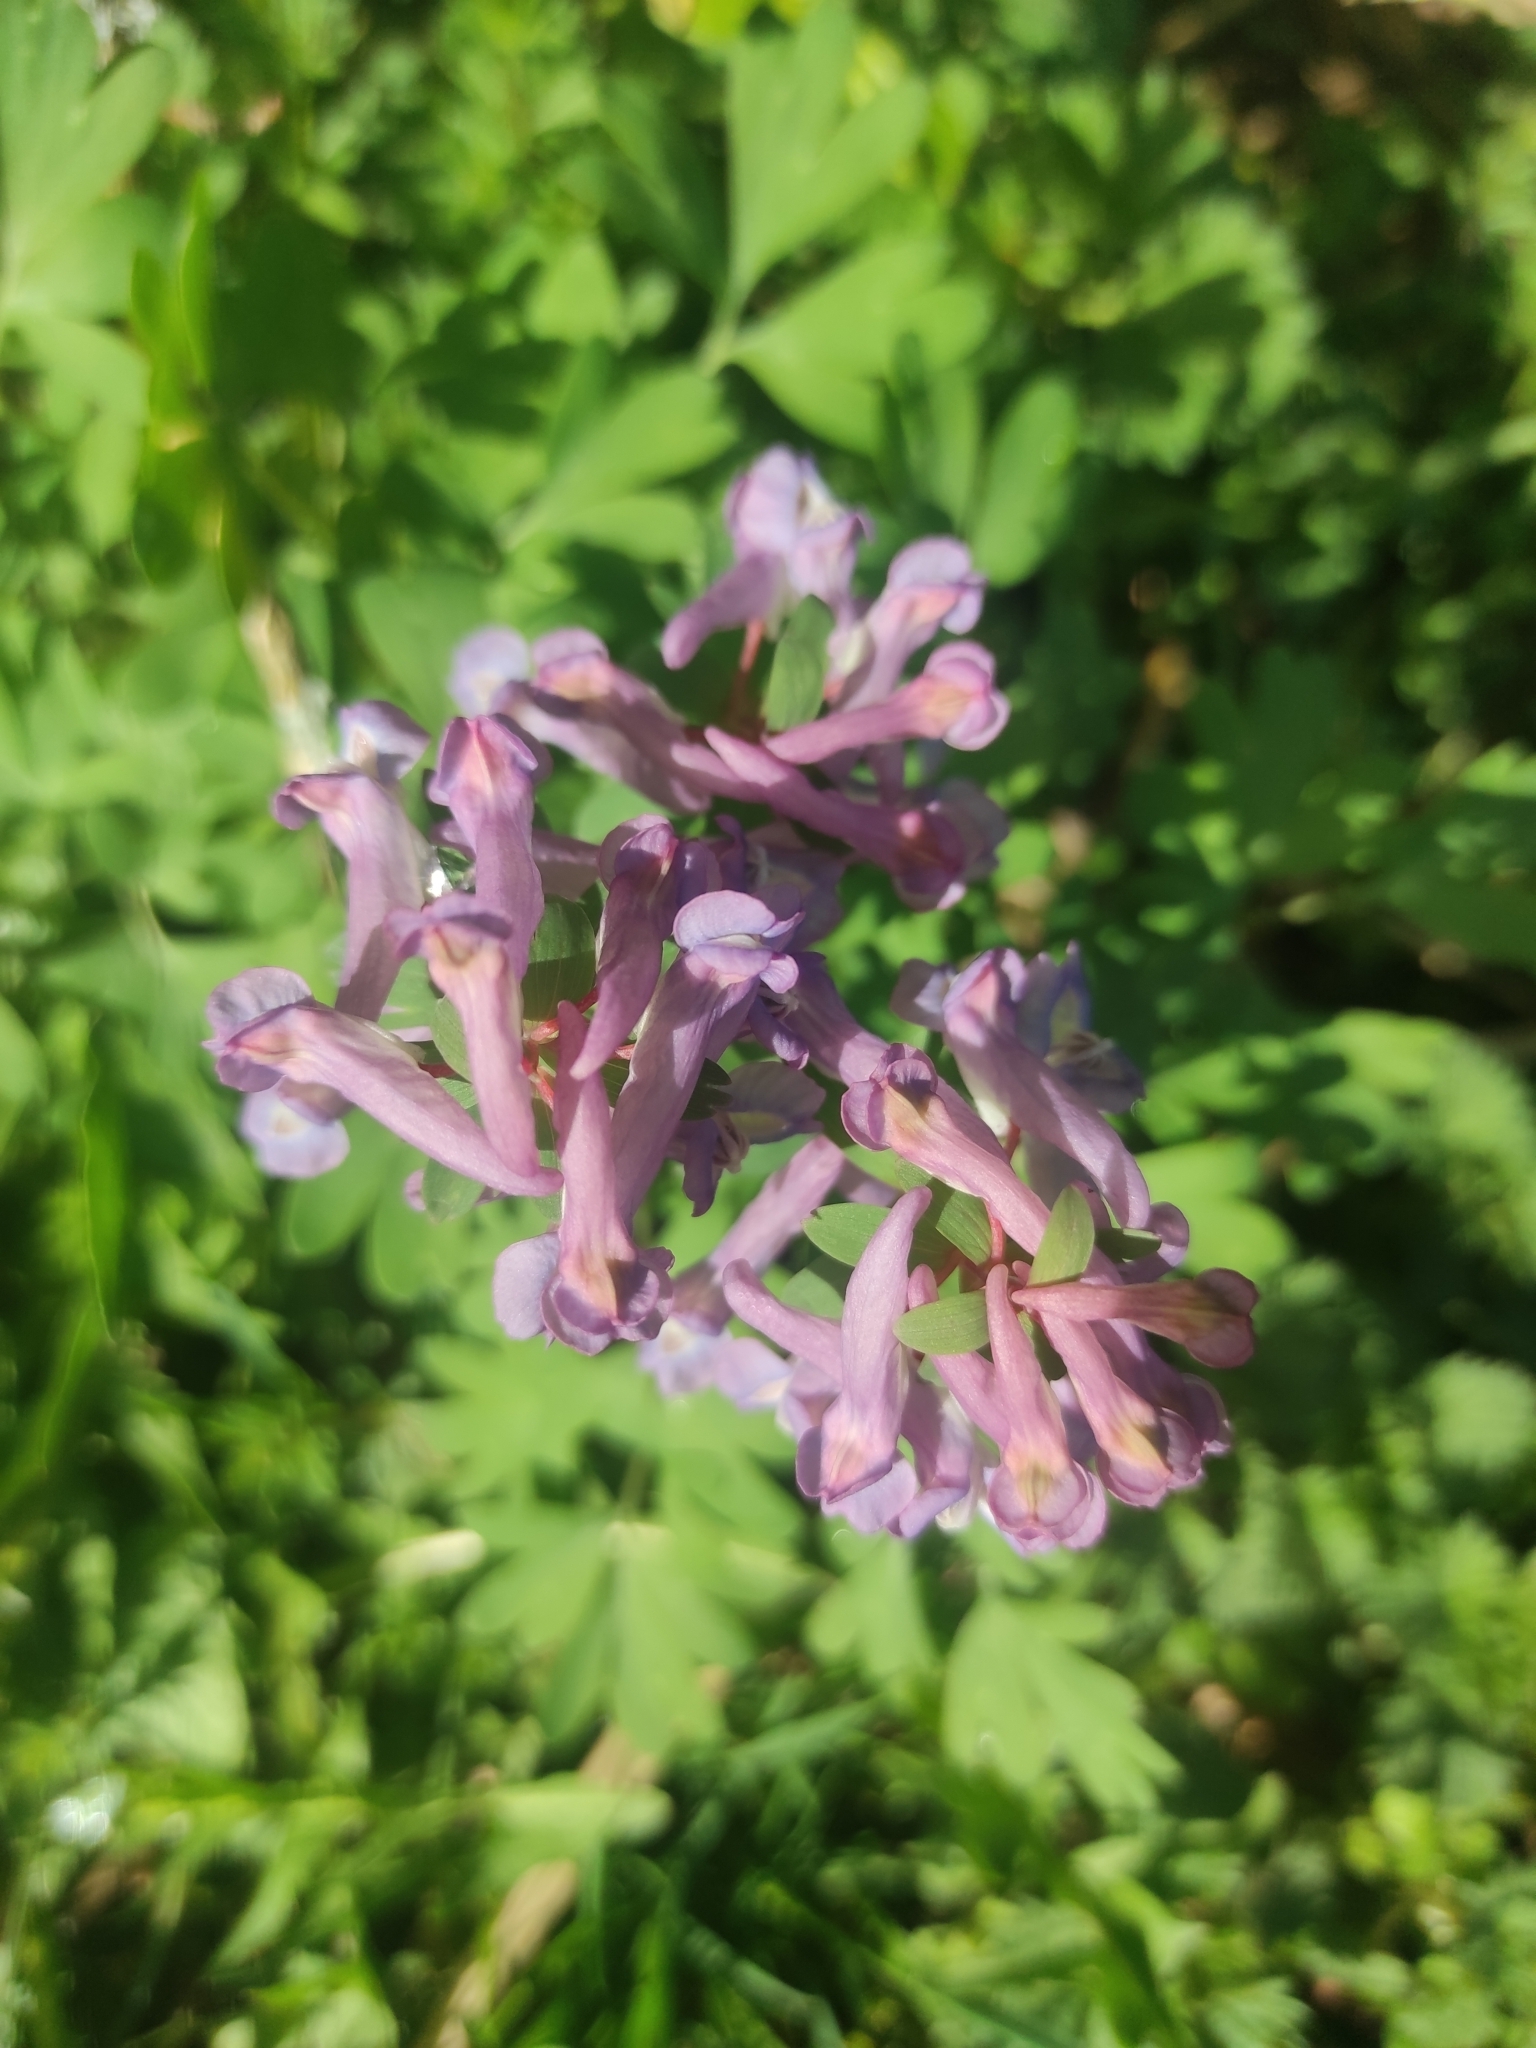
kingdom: Plantae
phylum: Tracheophyta
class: Magnoliopsida
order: Ranunculales
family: Papaveraceae
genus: Corydalis
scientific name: Corydalis solida
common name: Bird-in-a-bush
